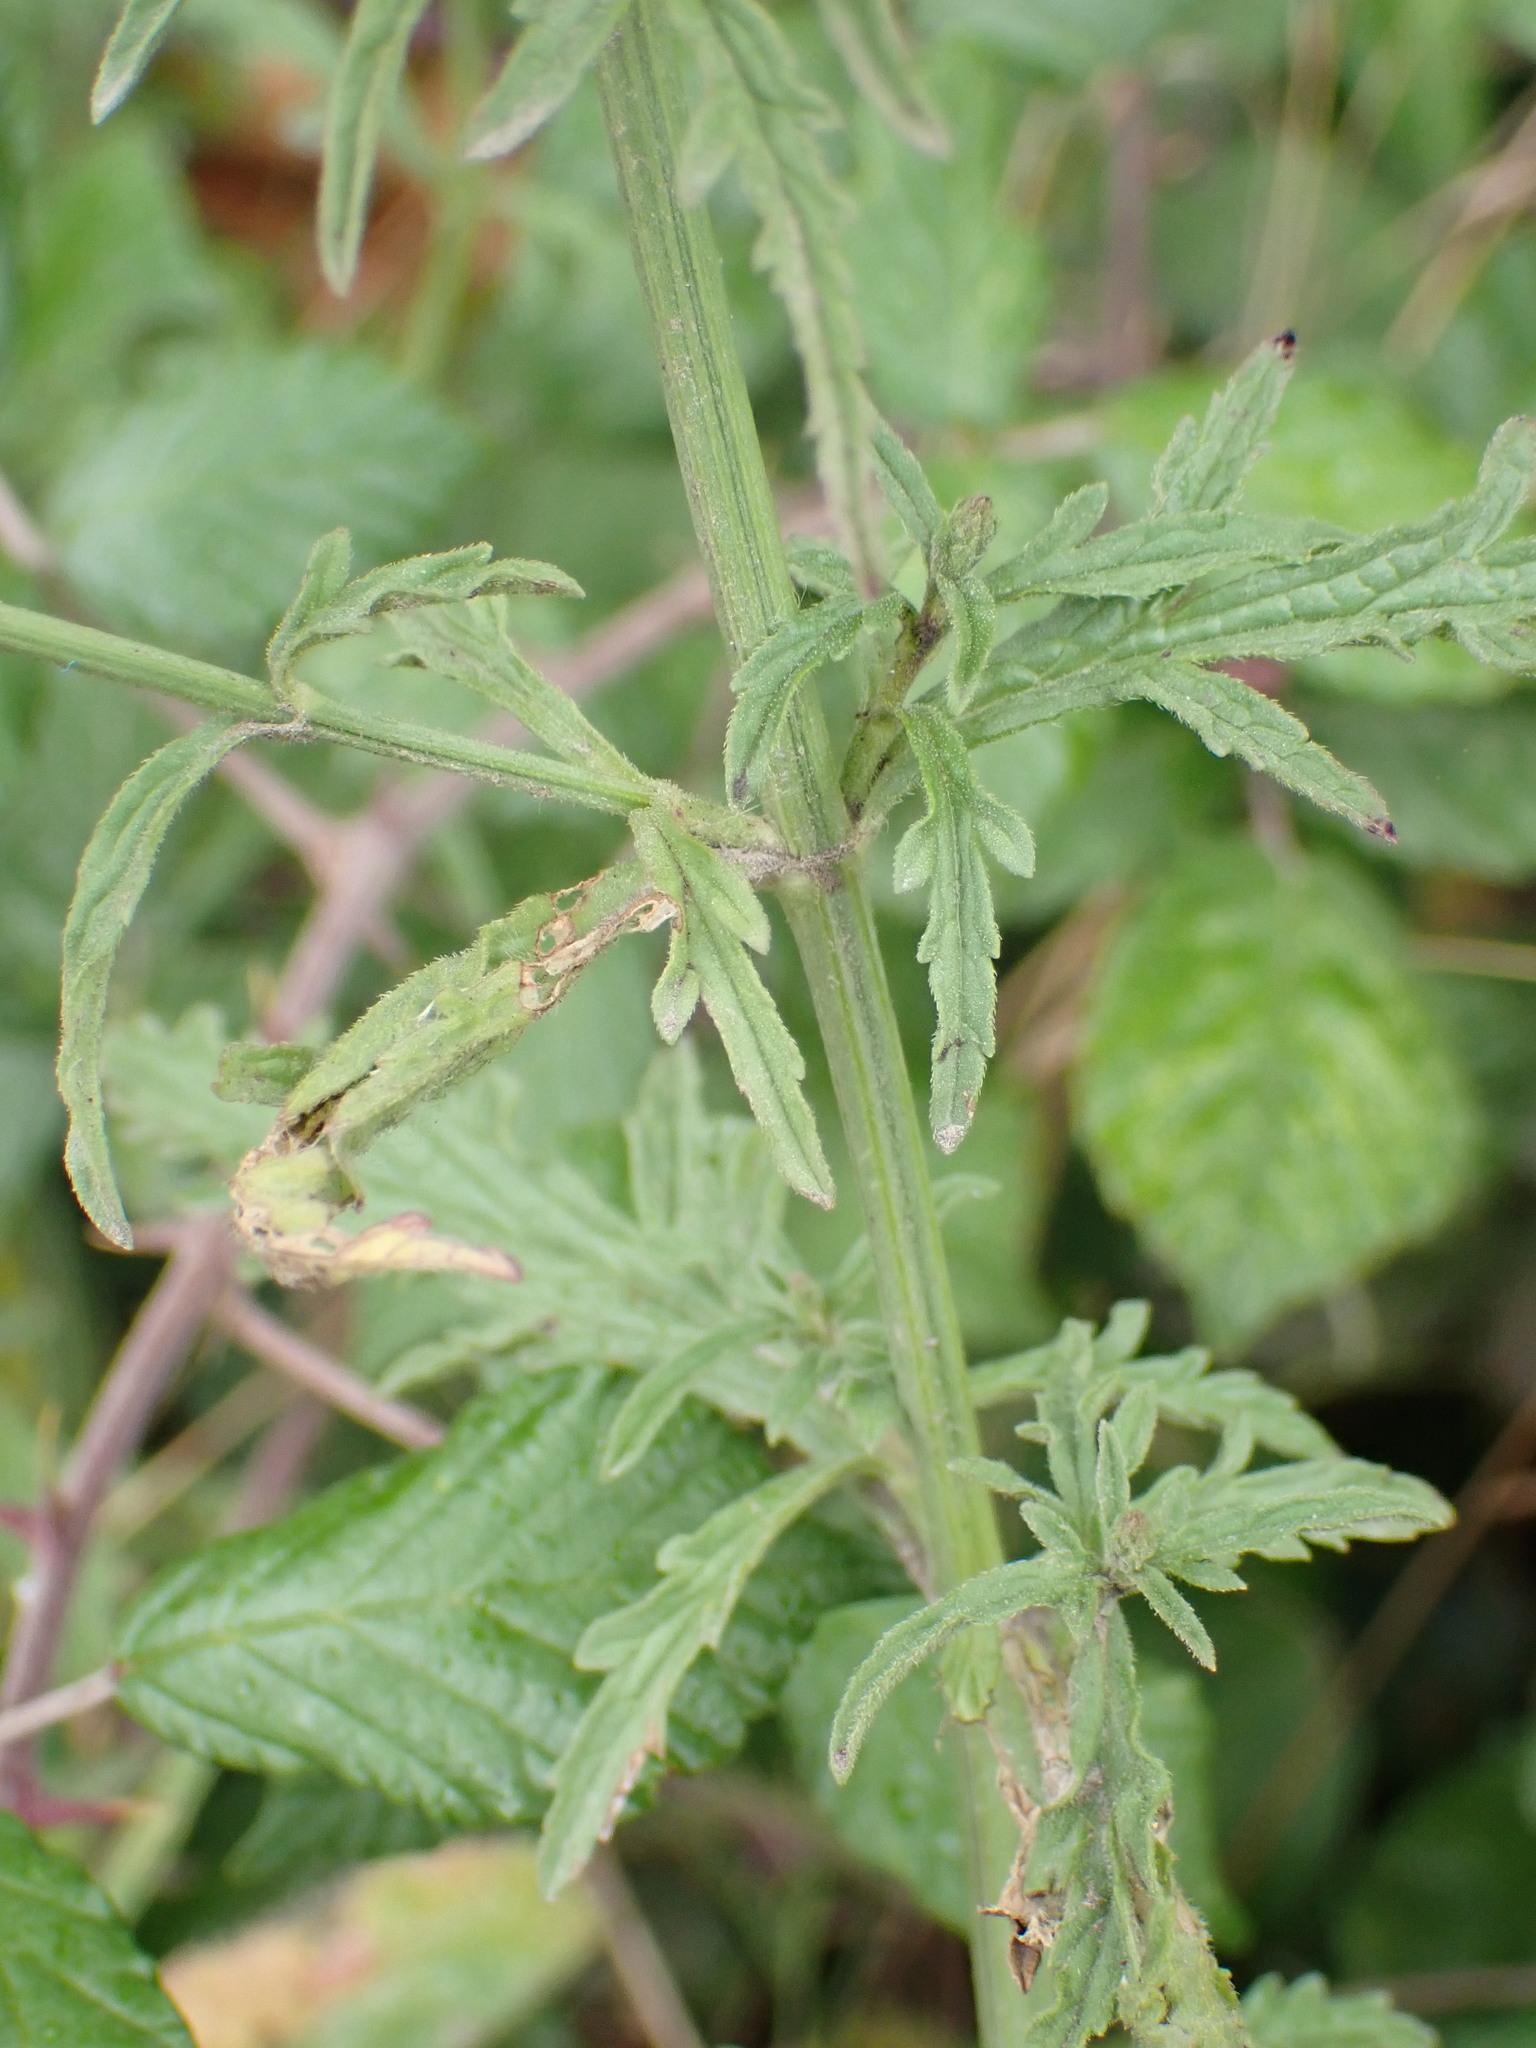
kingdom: Plantae
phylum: Tracheophyta
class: Magnoliopsida
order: Lamiales
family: Verbenaceae
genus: Verbena
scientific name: Verbena officinalis
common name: Vervain
